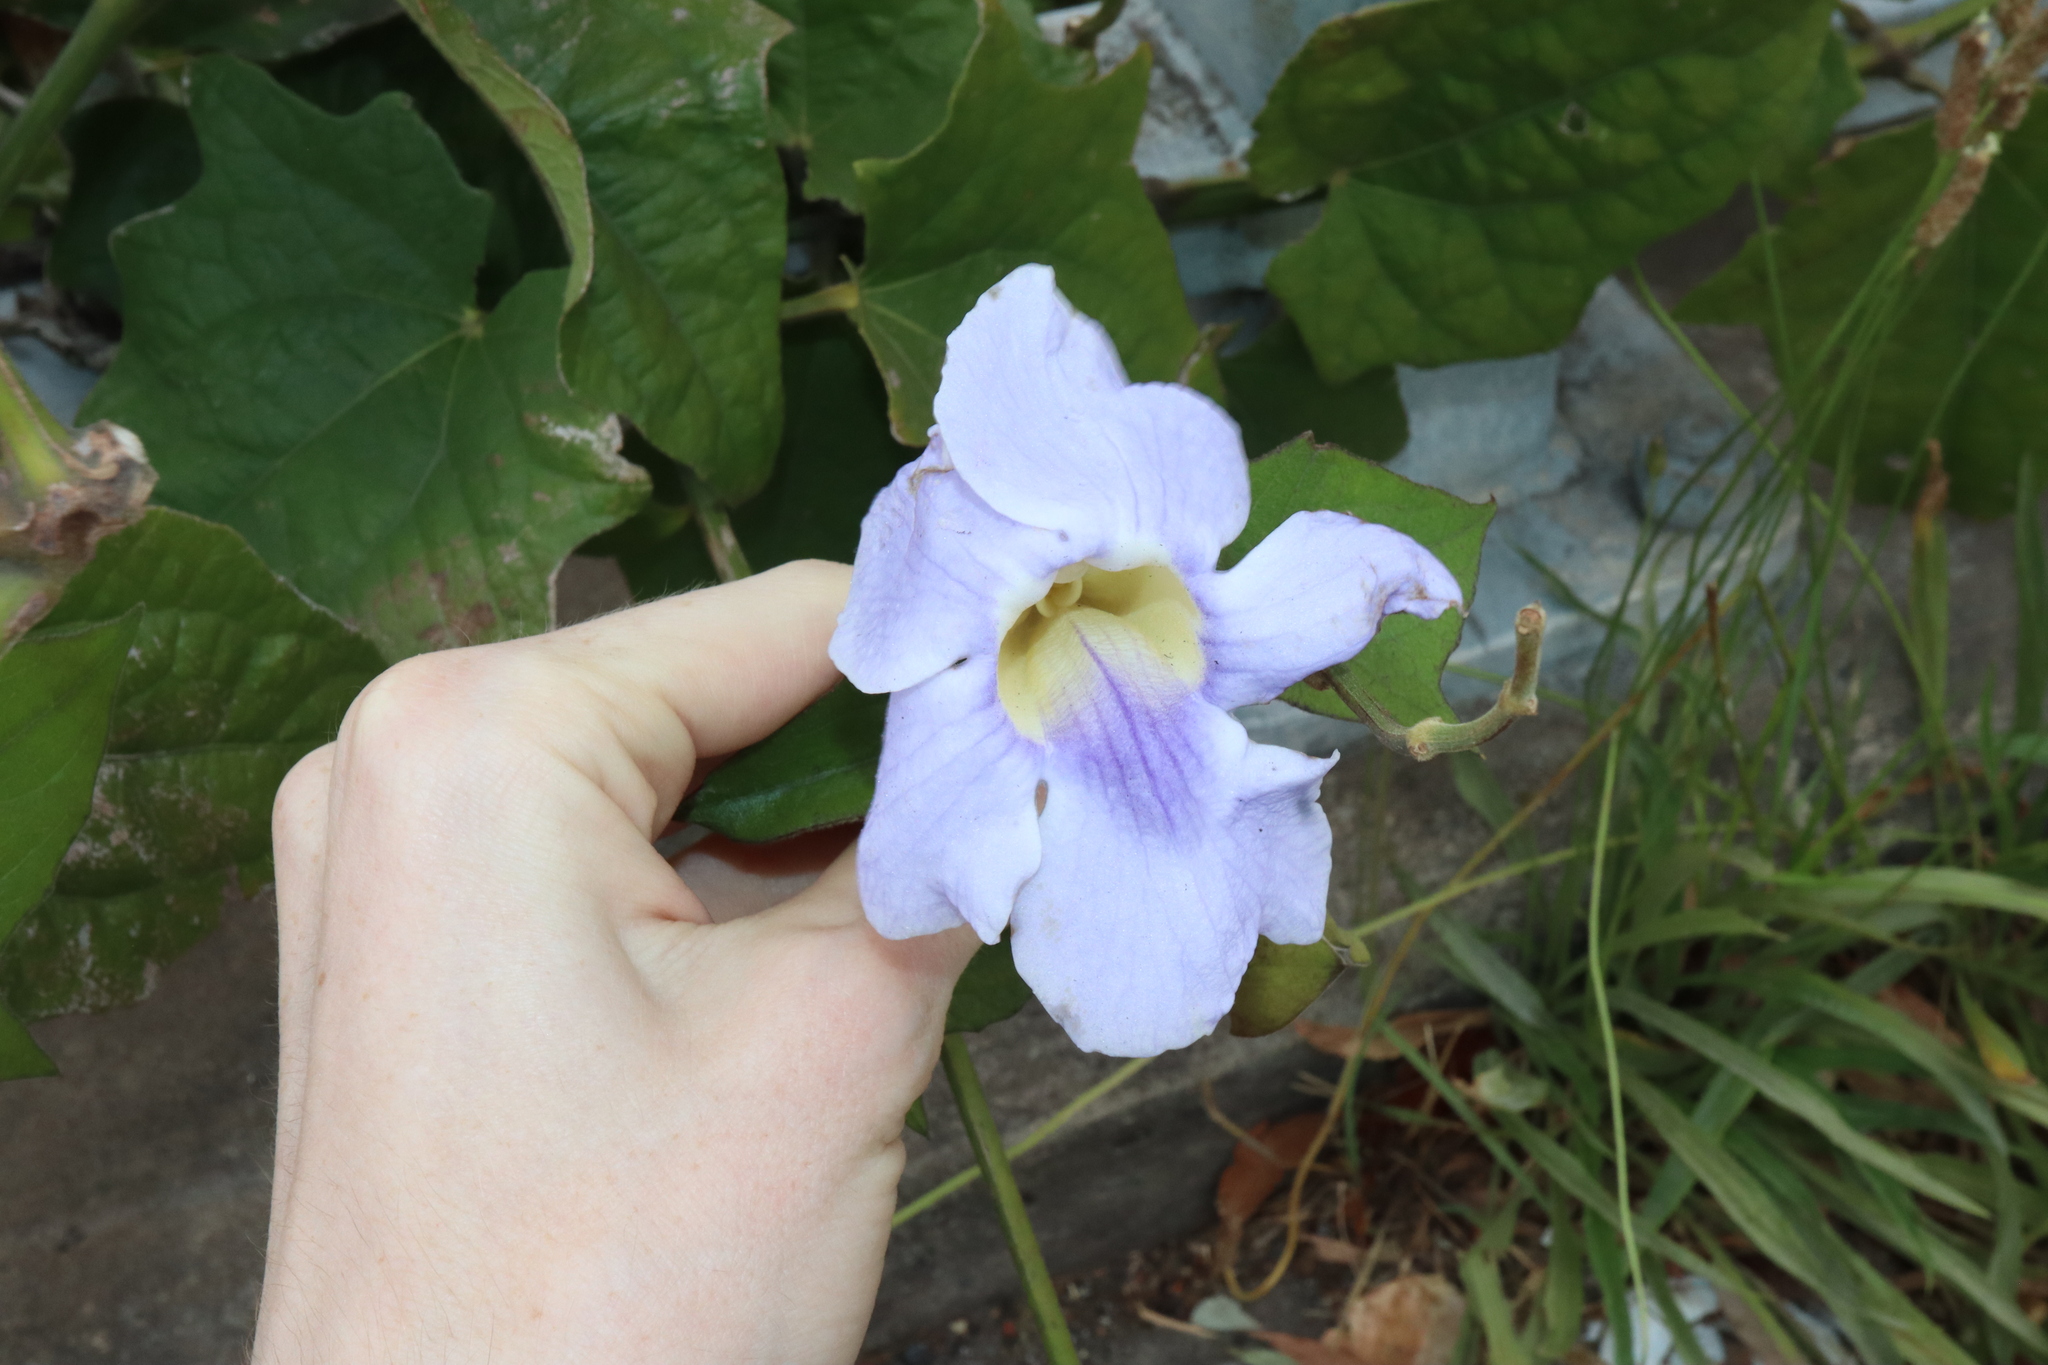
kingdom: Plantae
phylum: Tracheophyta
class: Magnoliopsida
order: Lamiales
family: Acanthaceae
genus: Thunbergia
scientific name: Thunbergia grandiflora
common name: Bengal trumpet
